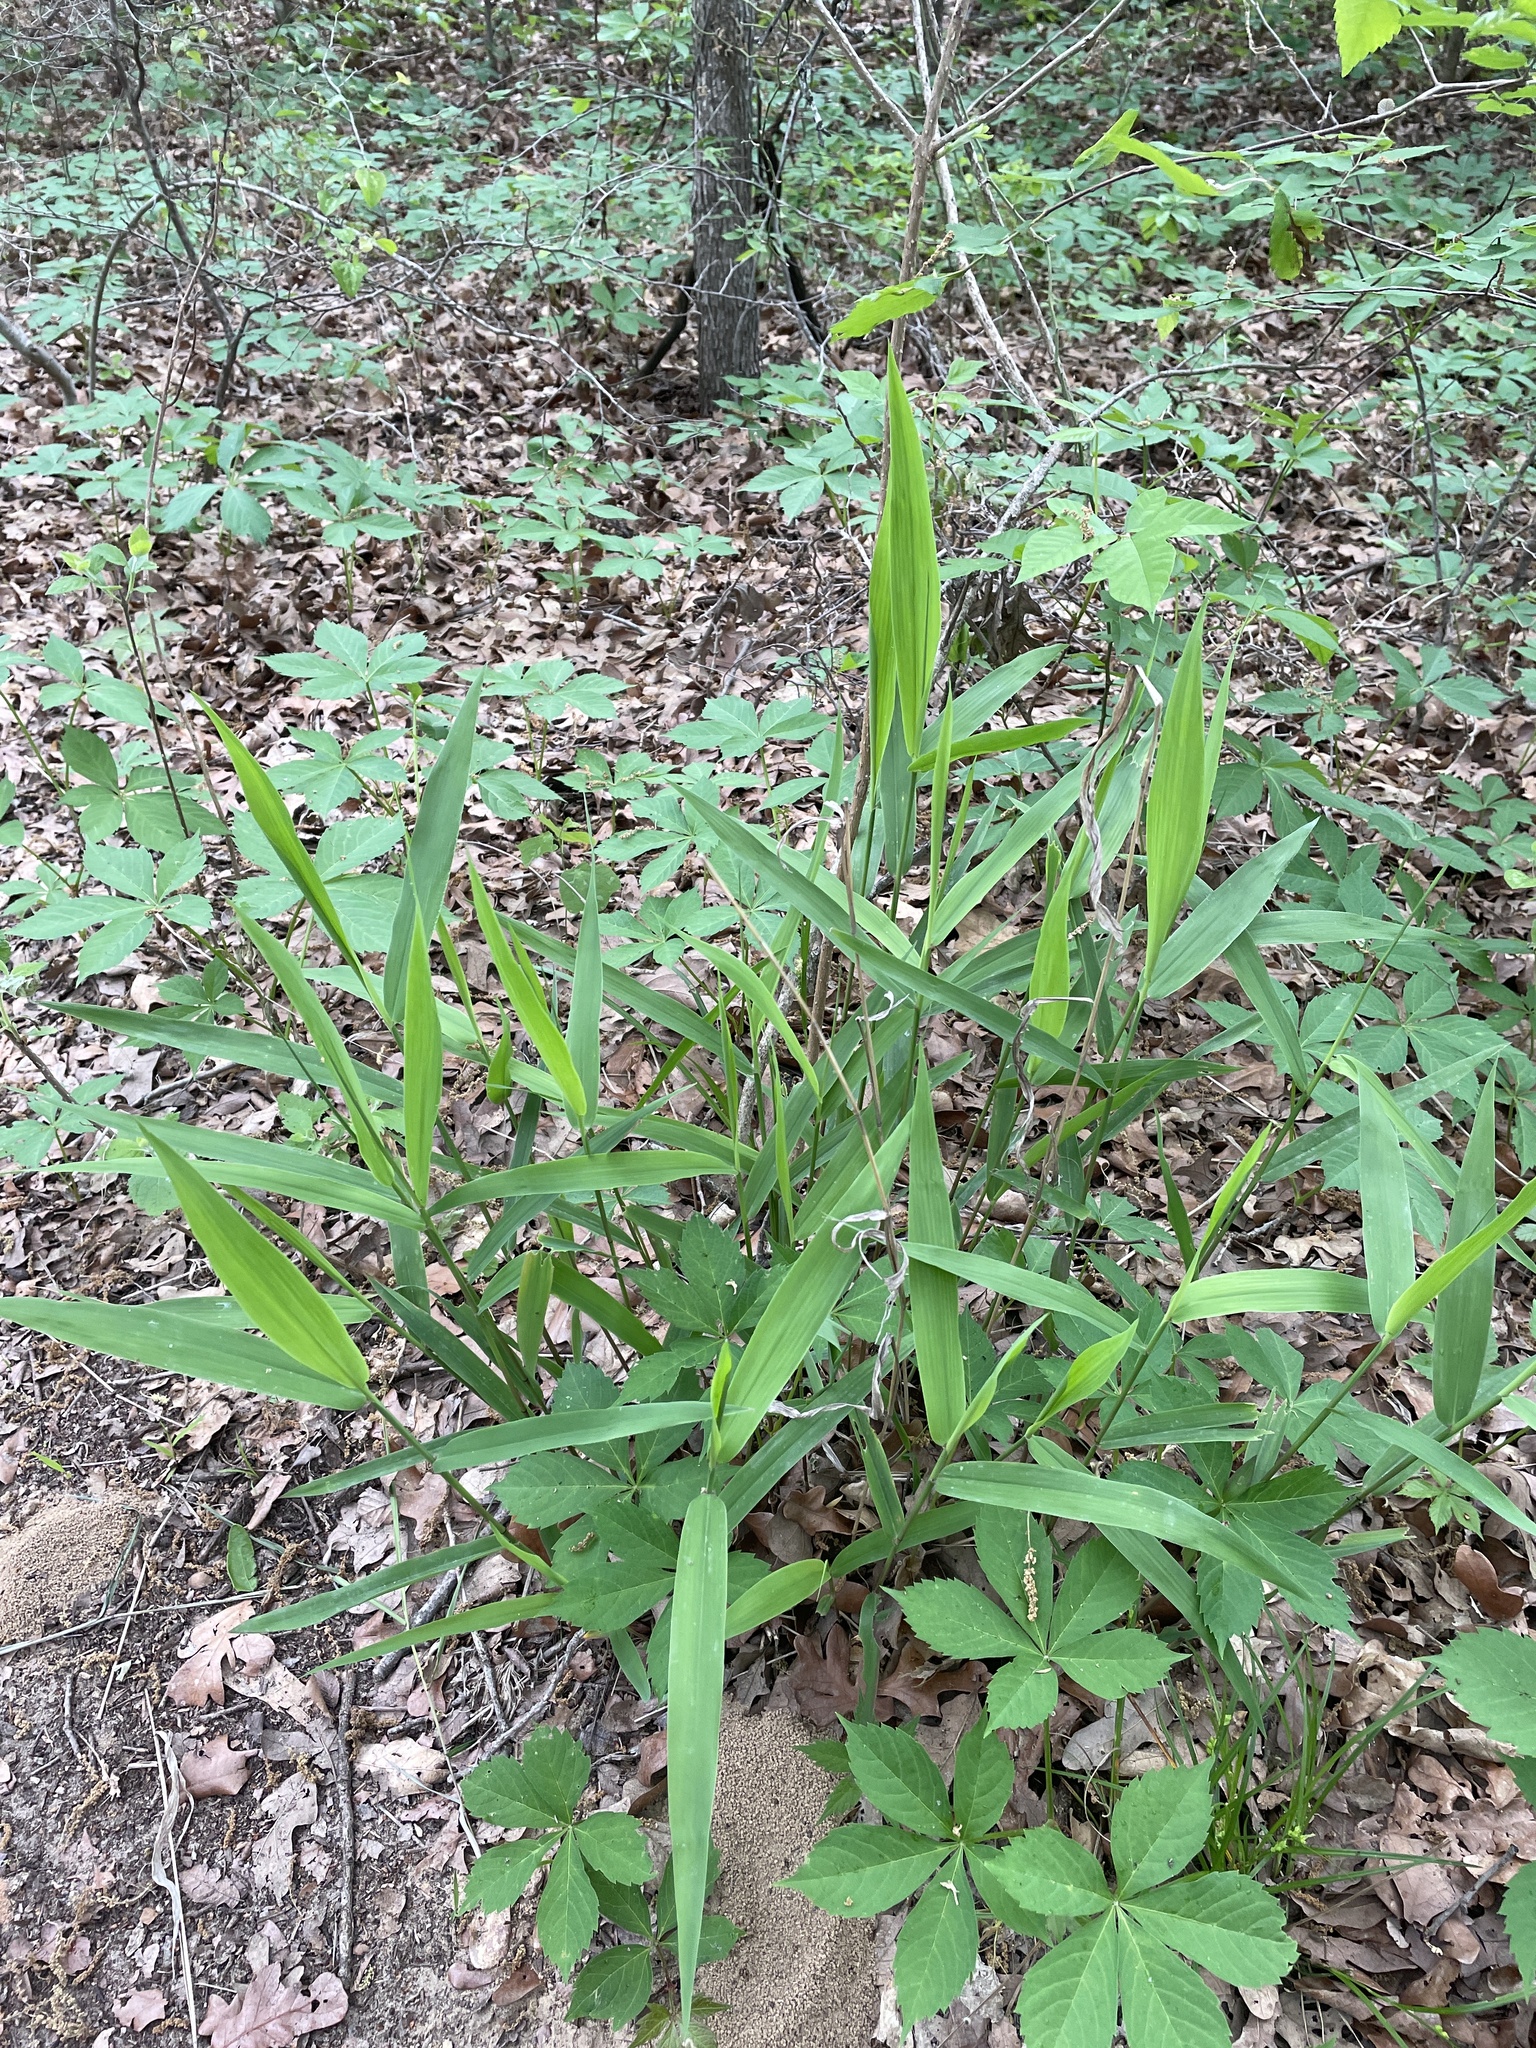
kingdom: Plantae
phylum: Tracheophyta
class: Liliopsida
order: Poales
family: Poaceae
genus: Chasmanthium
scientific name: Chasmanthium latifolium
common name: Broad-leaved chasmanthium
